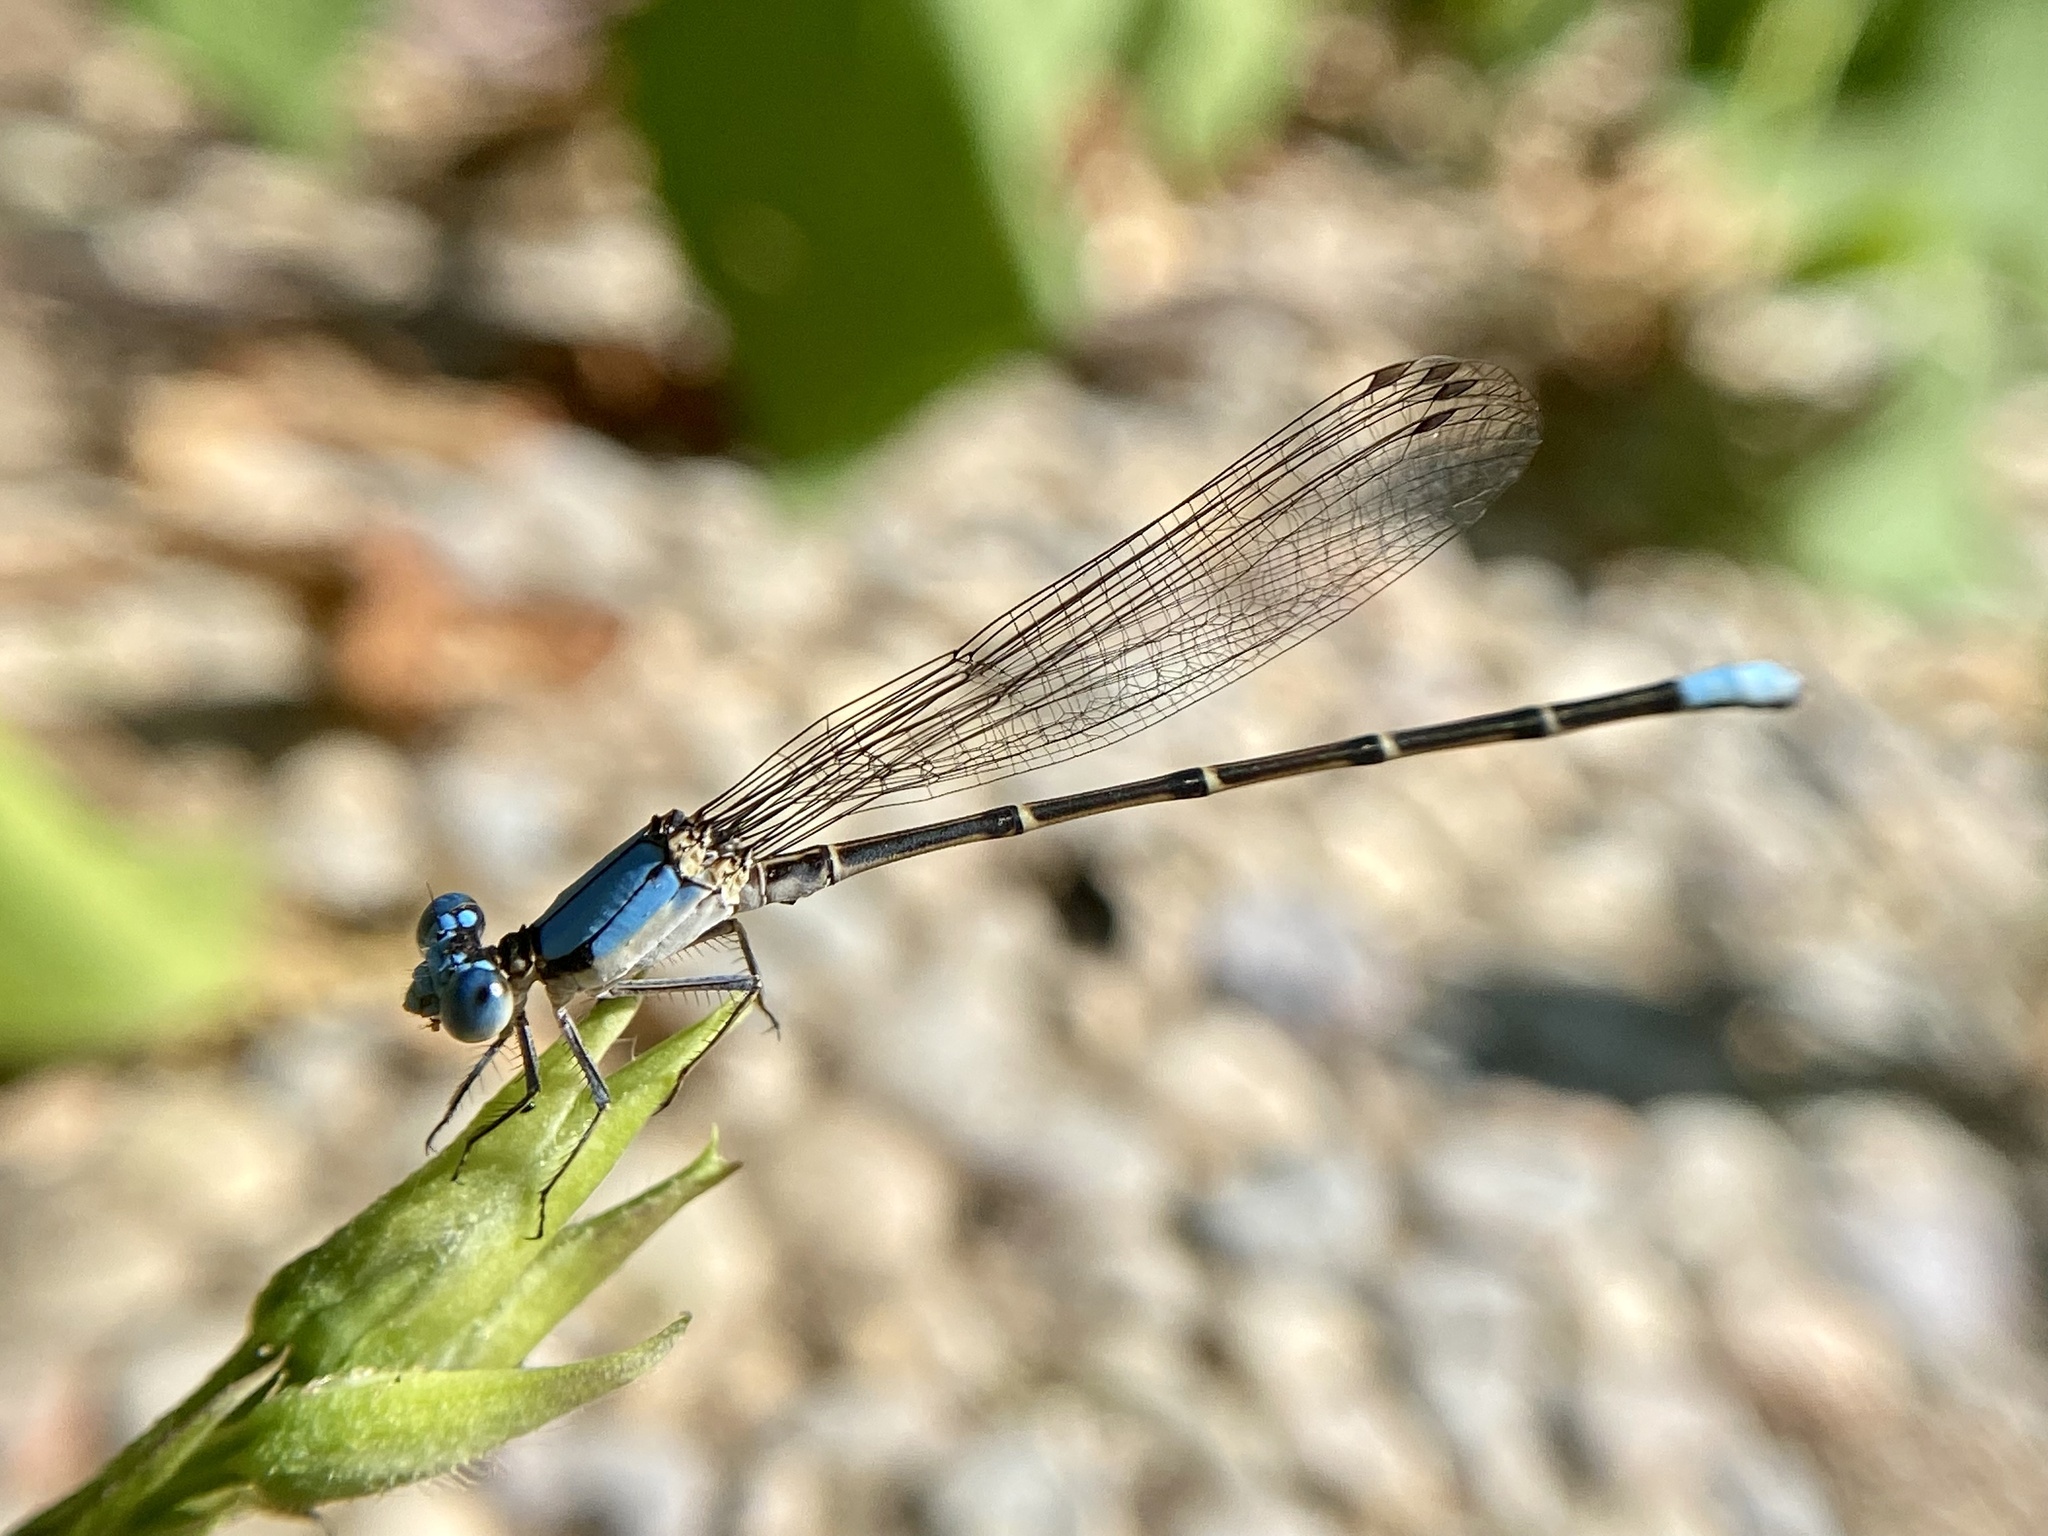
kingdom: Animalia
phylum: Arthropoda
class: Insecta
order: Odonata
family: Coenagrionidae
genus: Argia
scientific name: Argia apicalis
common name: Blue-fronted dancer
